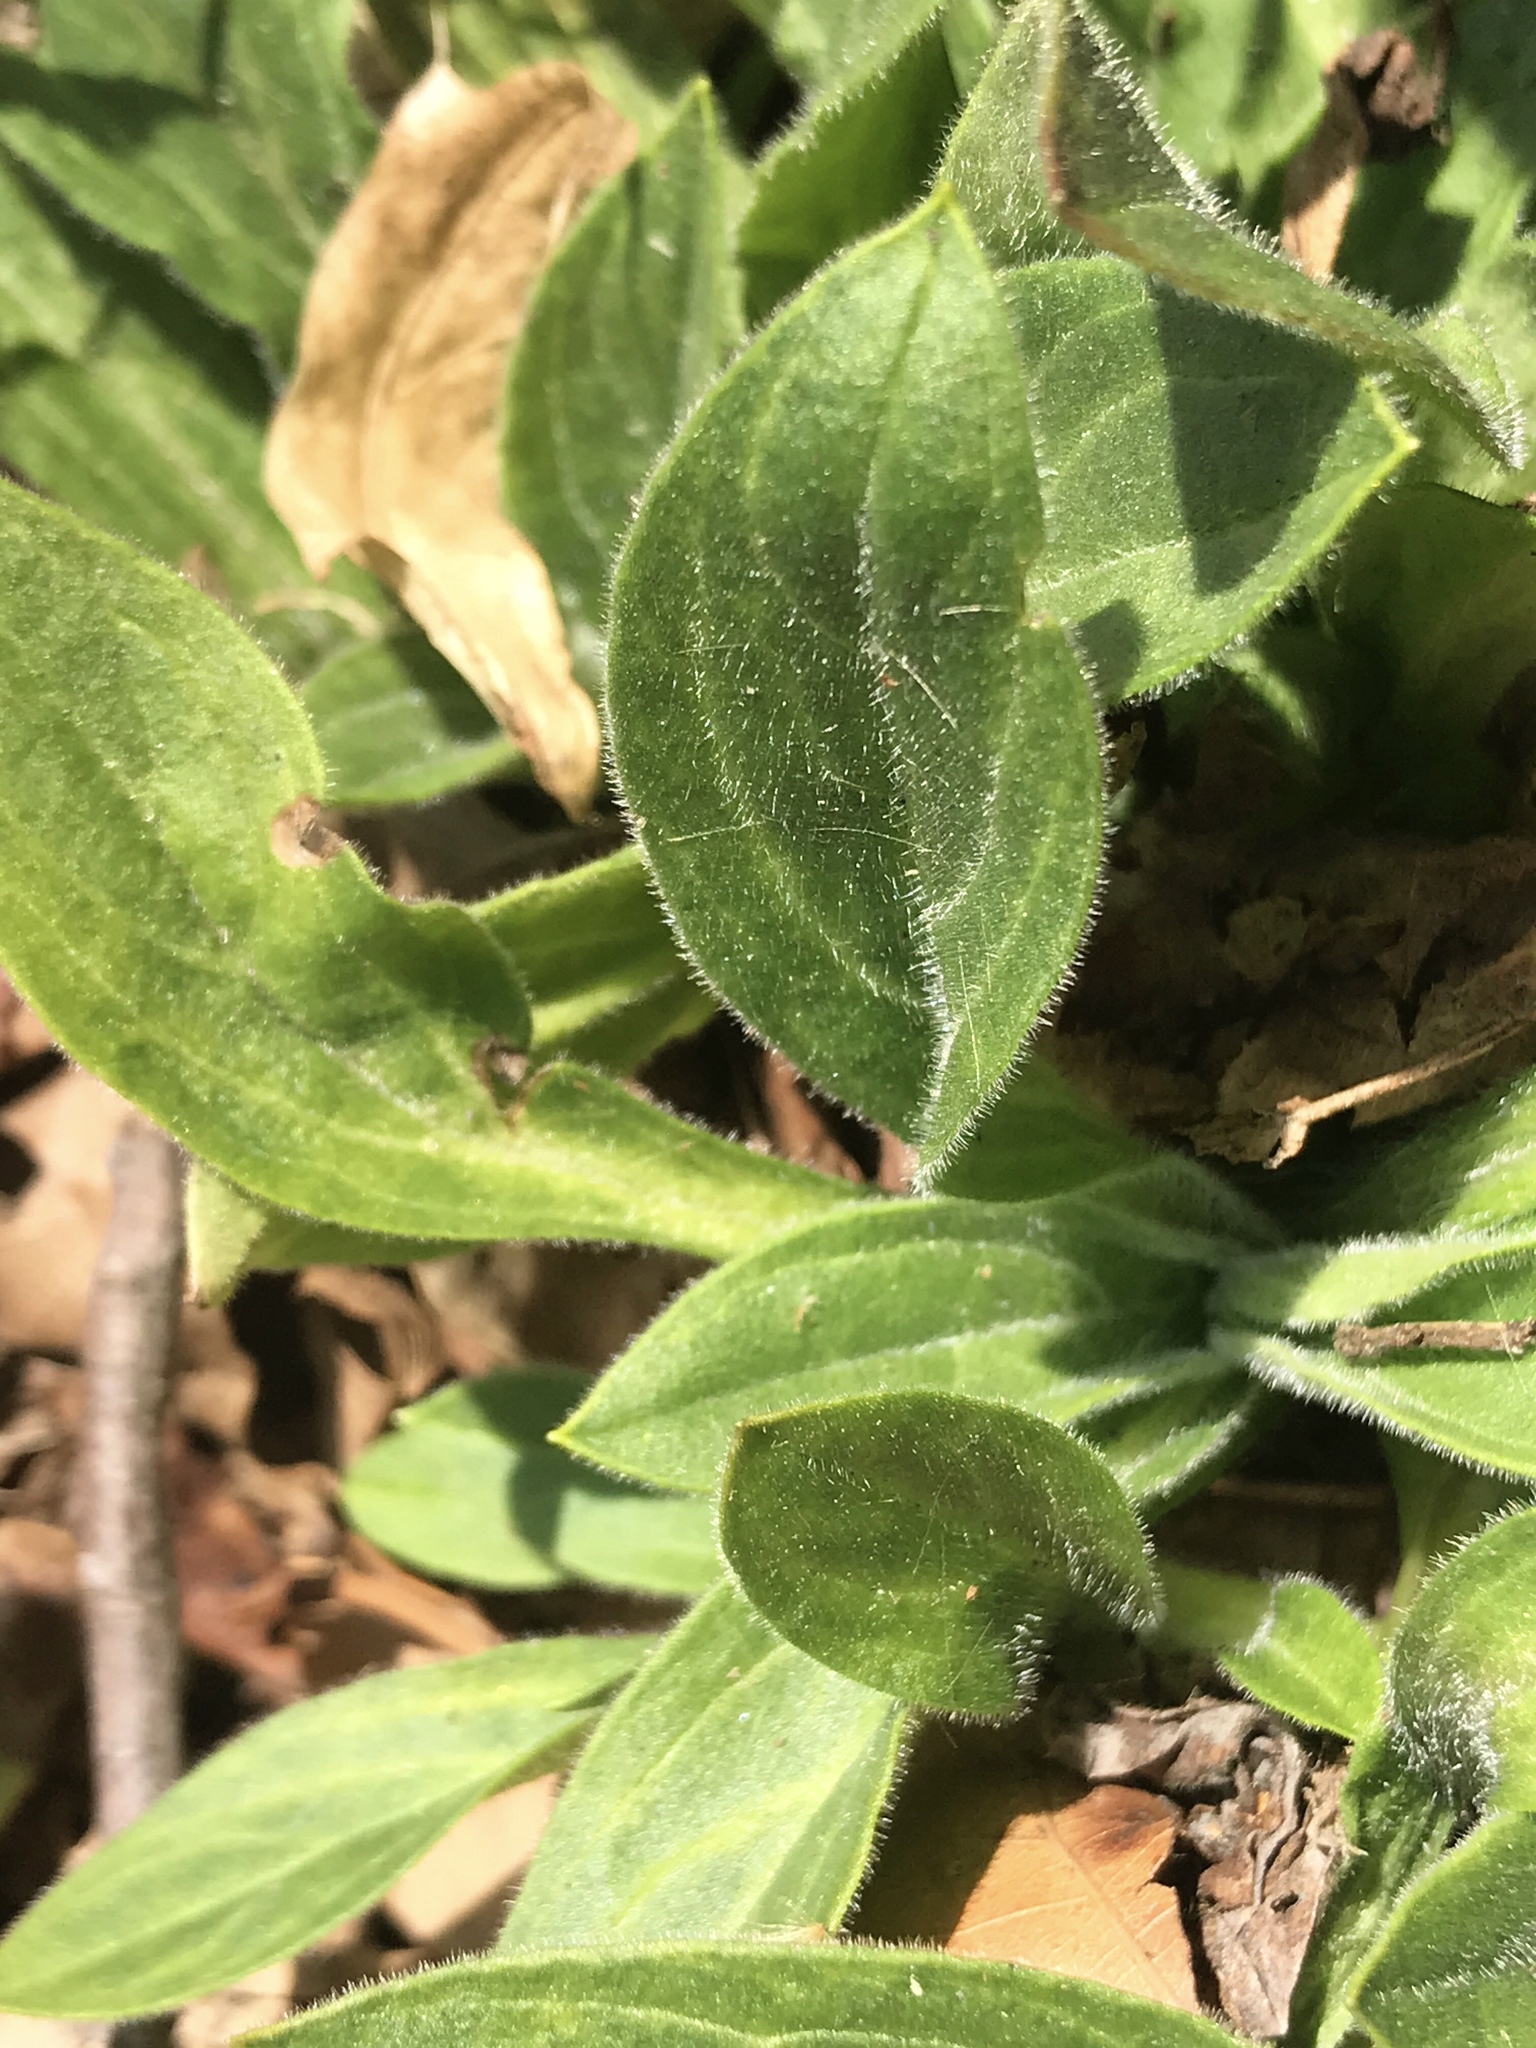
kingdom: Plantae
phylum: Tracheophyta
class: Magnoliopsida
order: Caryophyllales
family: Caryophyllaceae
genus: Silene
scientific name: Silene latifolia
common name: White campion
